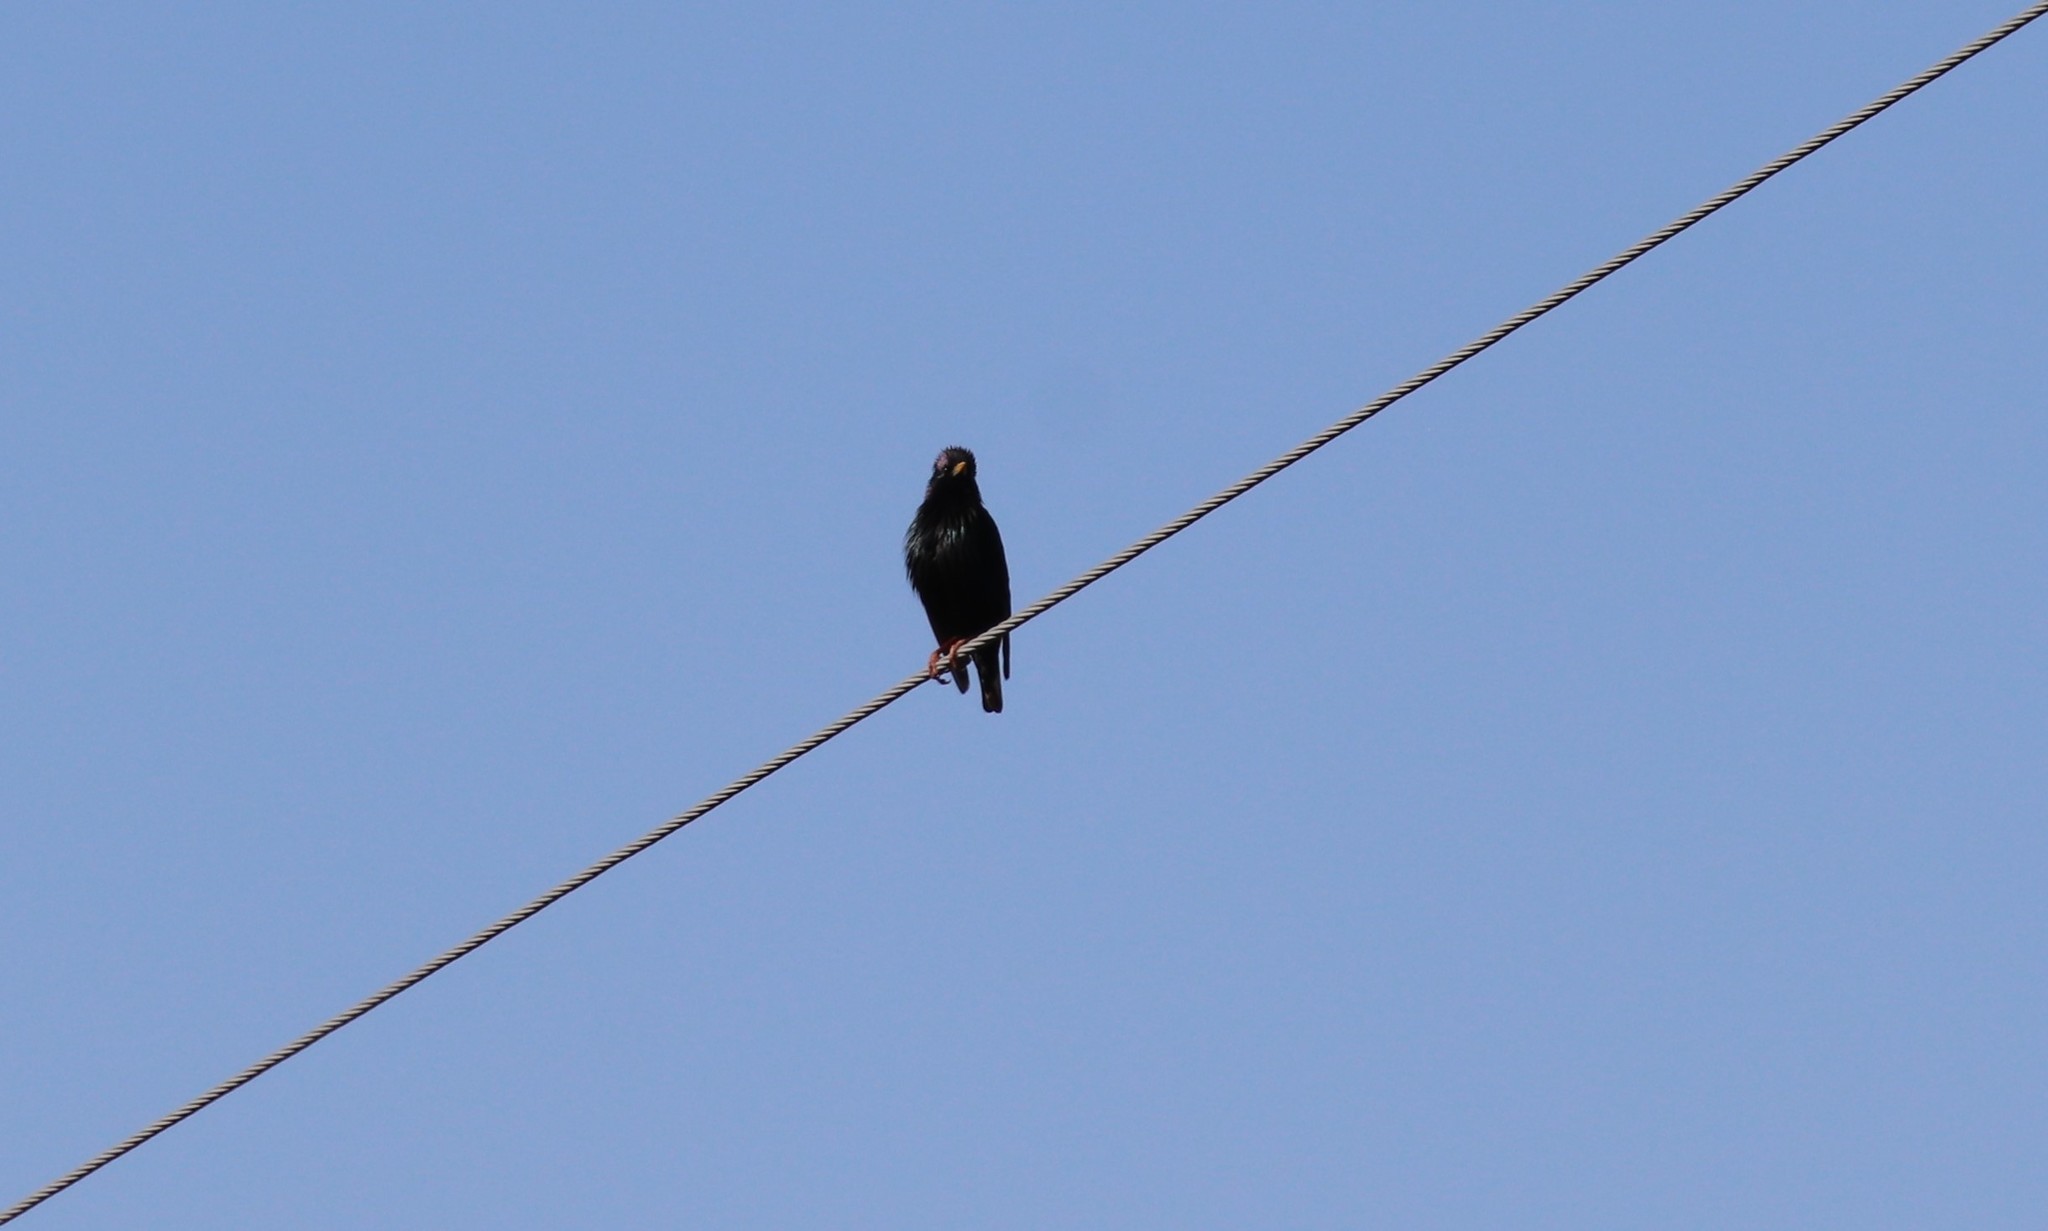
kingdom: Animalia
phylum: Chordata
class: Aves
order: Passeriformes
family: Sturnidae
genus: Sturnus
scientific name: Sturnus vulgaris
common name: Common starling
